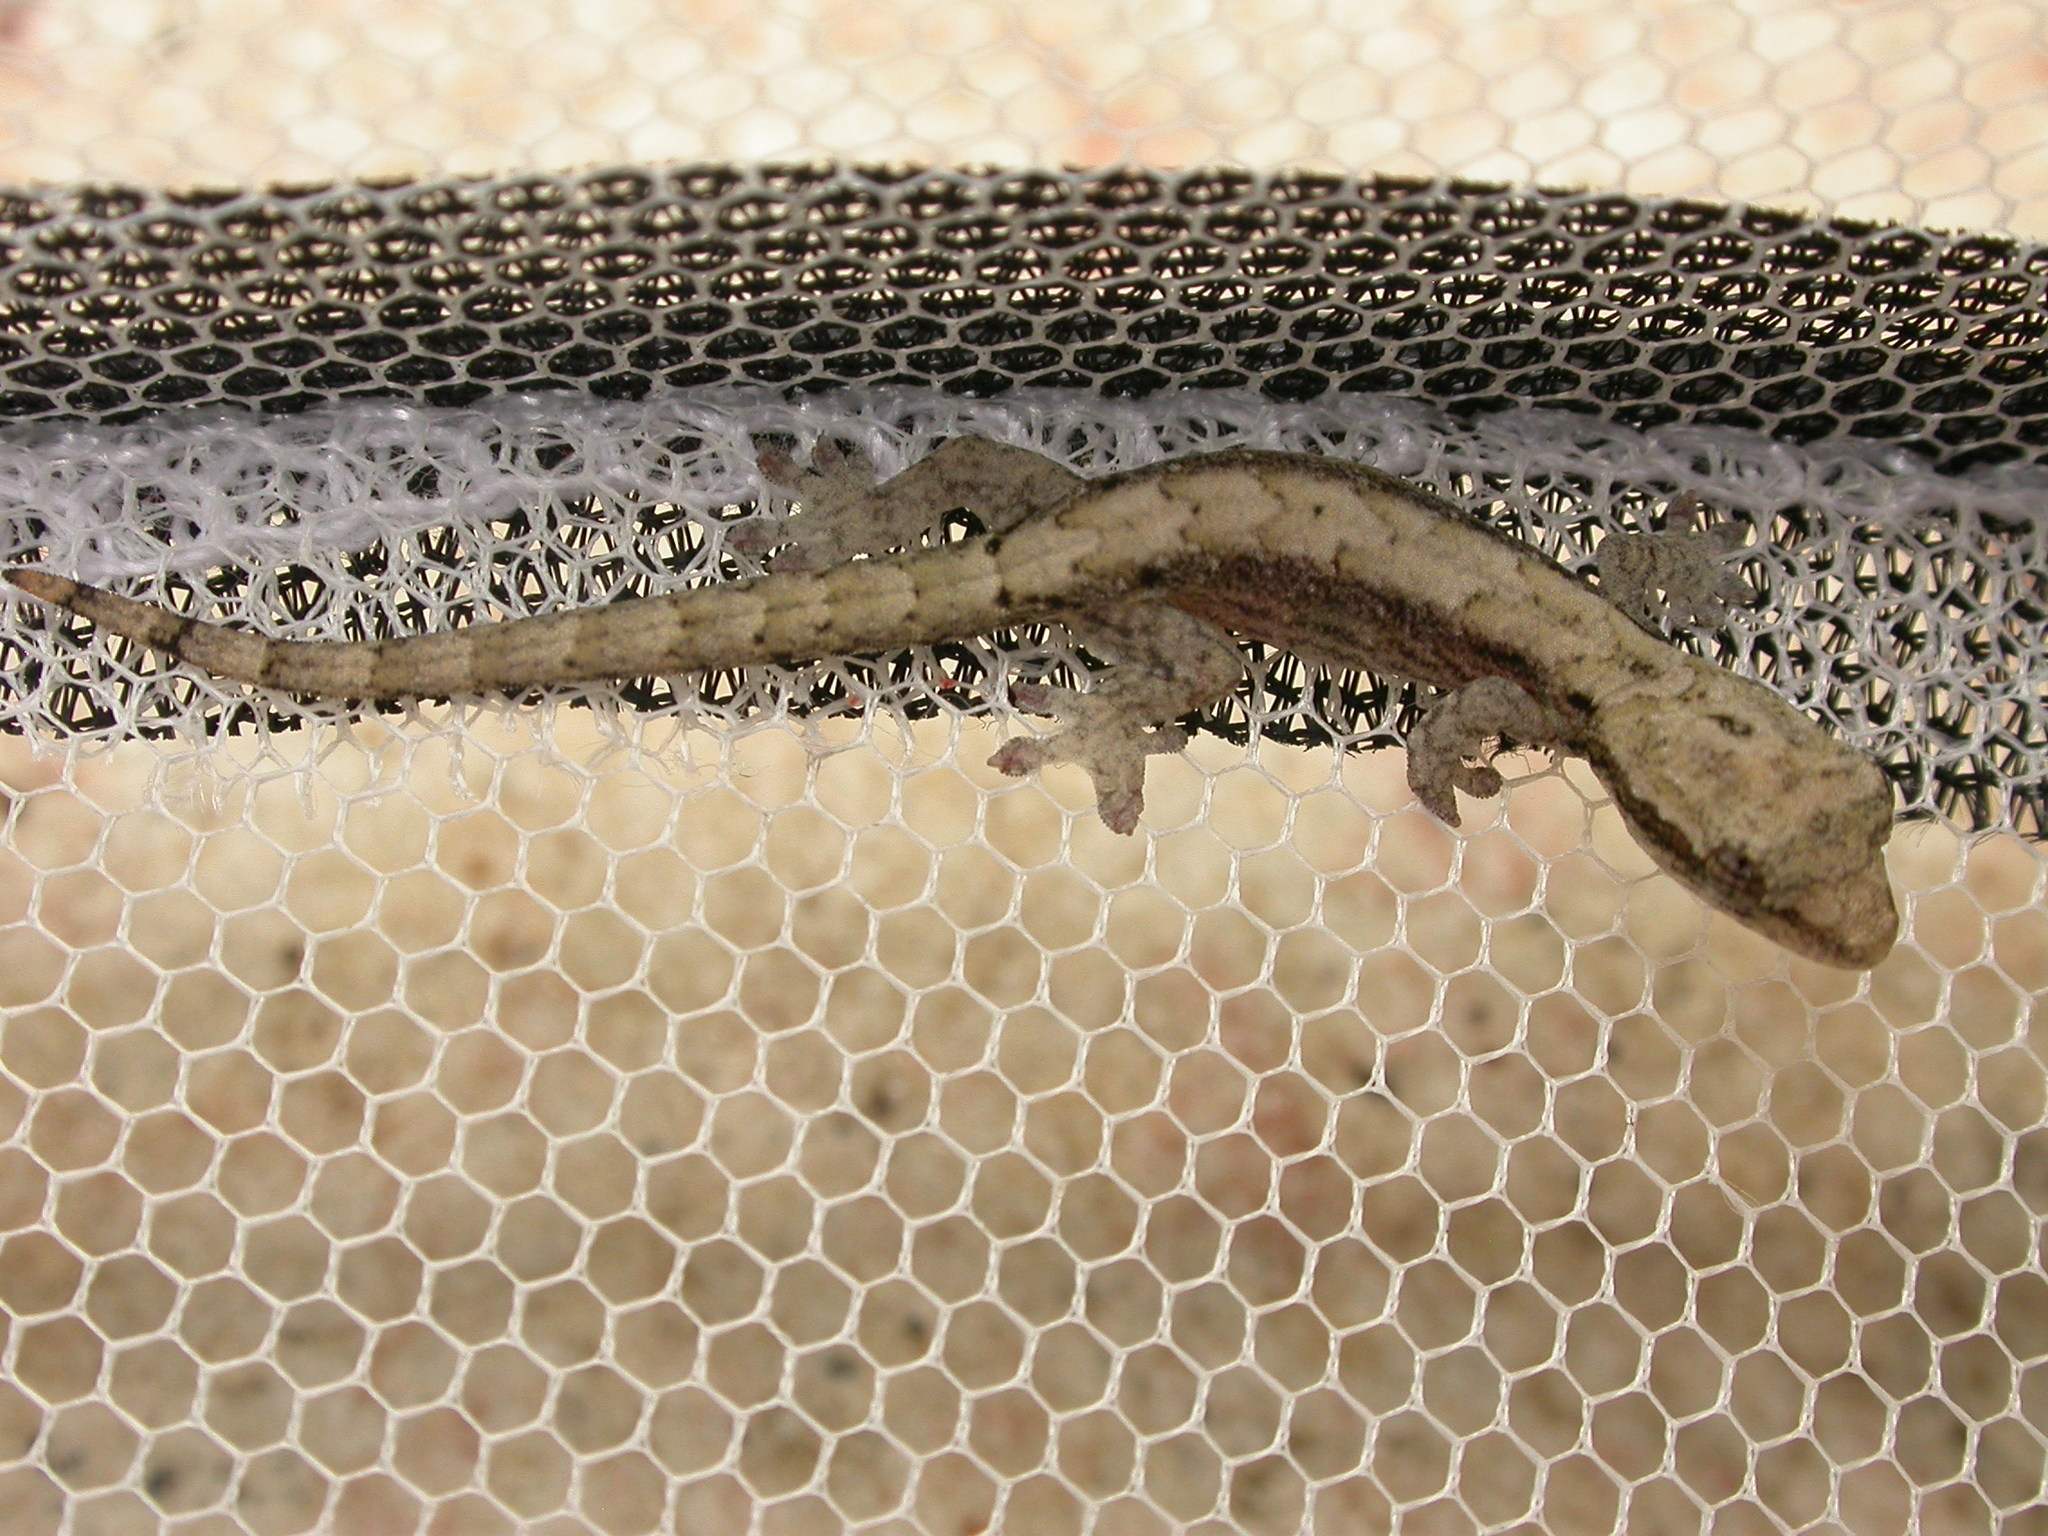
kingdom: Animalia
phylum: Chordata
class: Squamata
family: Gekkonidae
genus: Lepidodactylus
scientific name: Lepidodactylus lugubris
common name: Mourning gecko
